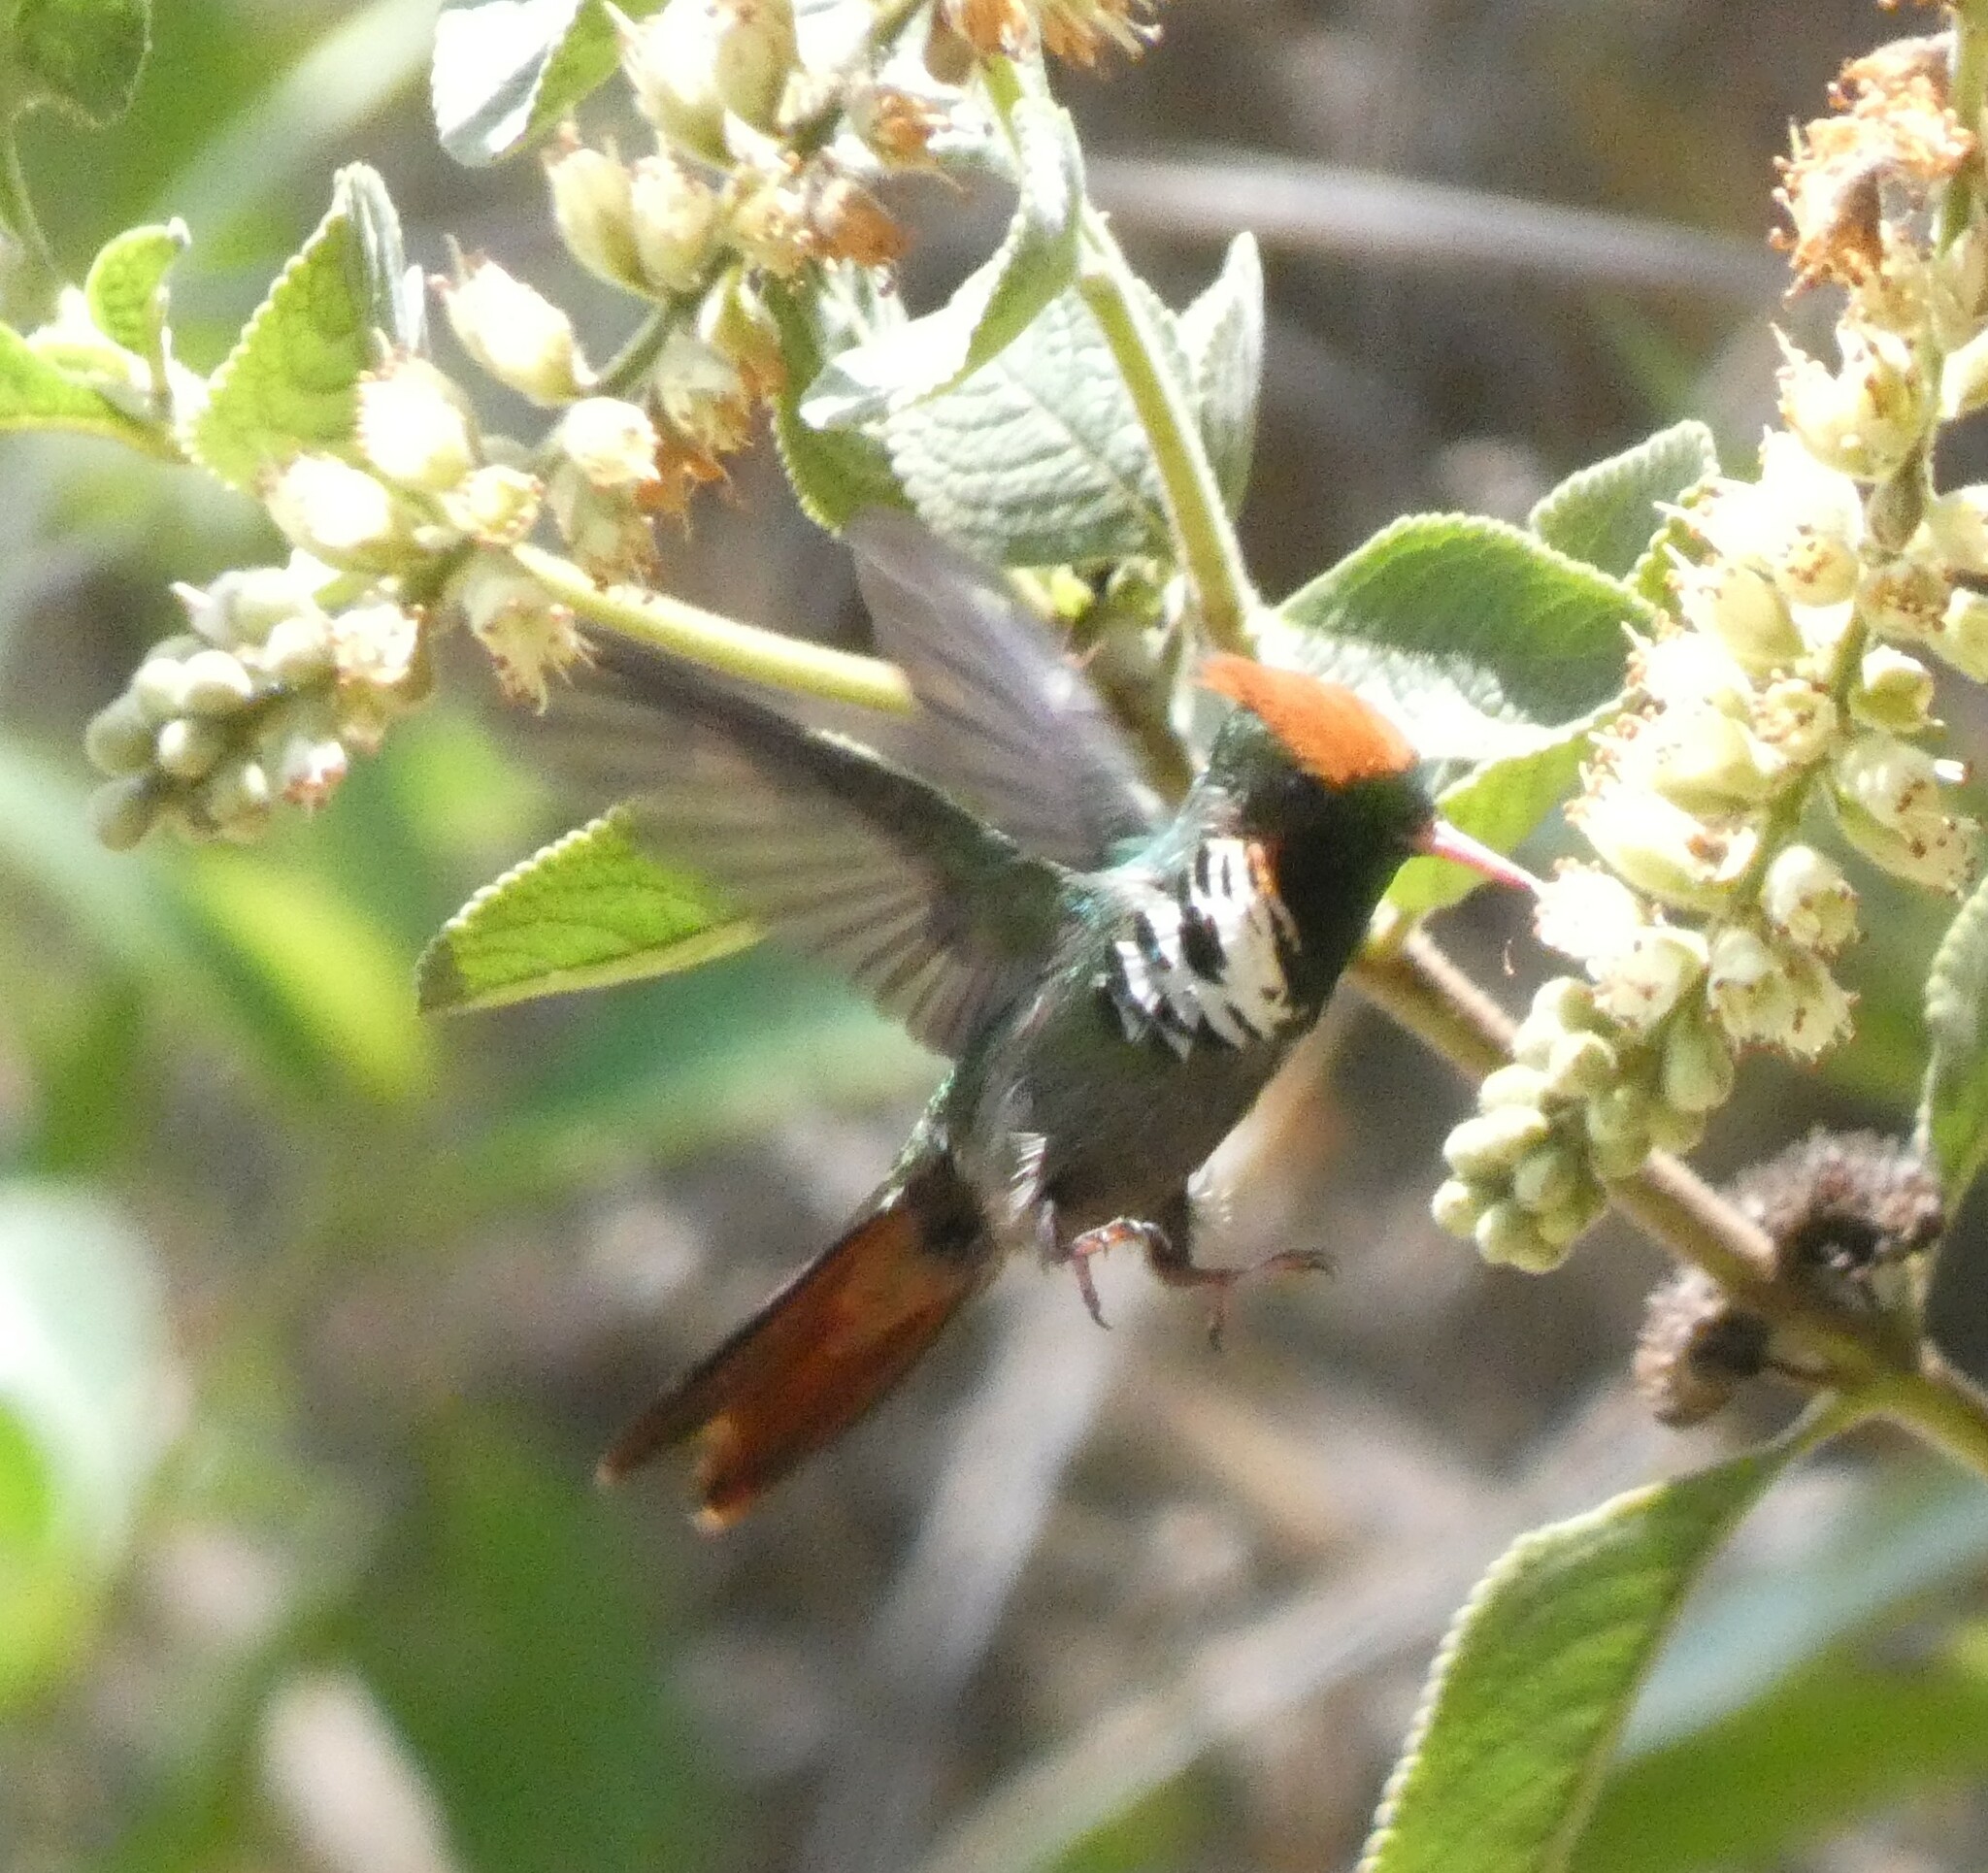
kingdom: Animalia
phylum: Chordata
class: Aves
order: Apodiformes
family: Trochilidae
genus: Lophornis
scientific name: Lophornis magnificus
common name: Frilled coquette
